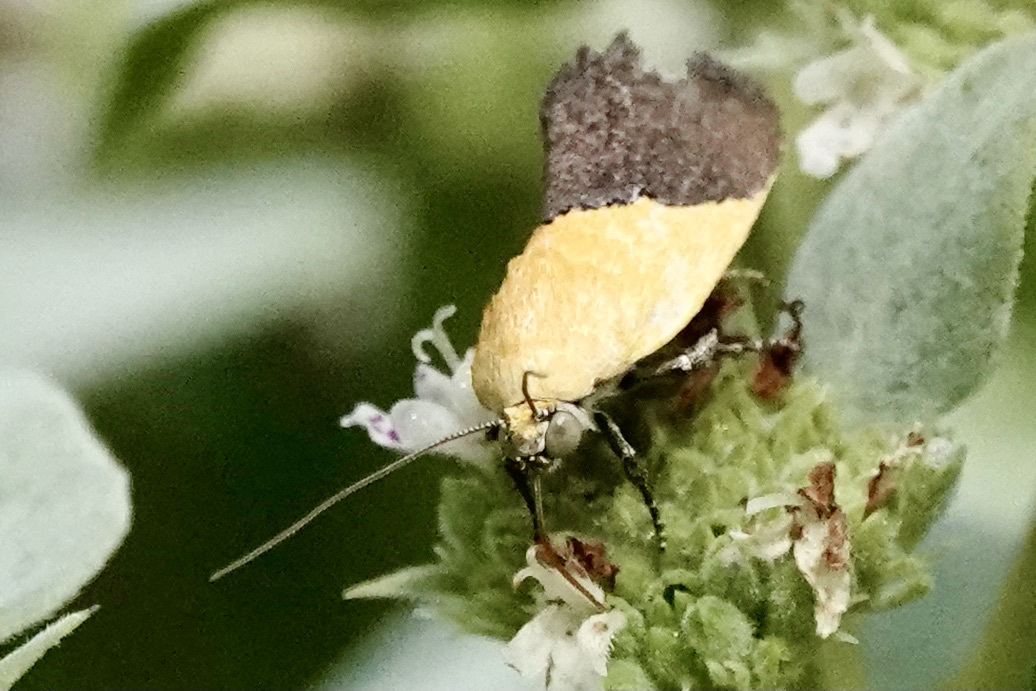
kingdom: Animalia
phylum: Arthropoda
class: Insecta
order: Lepidoptera
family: Noctuidae
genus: Acontia
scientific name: Acontia semiflava
